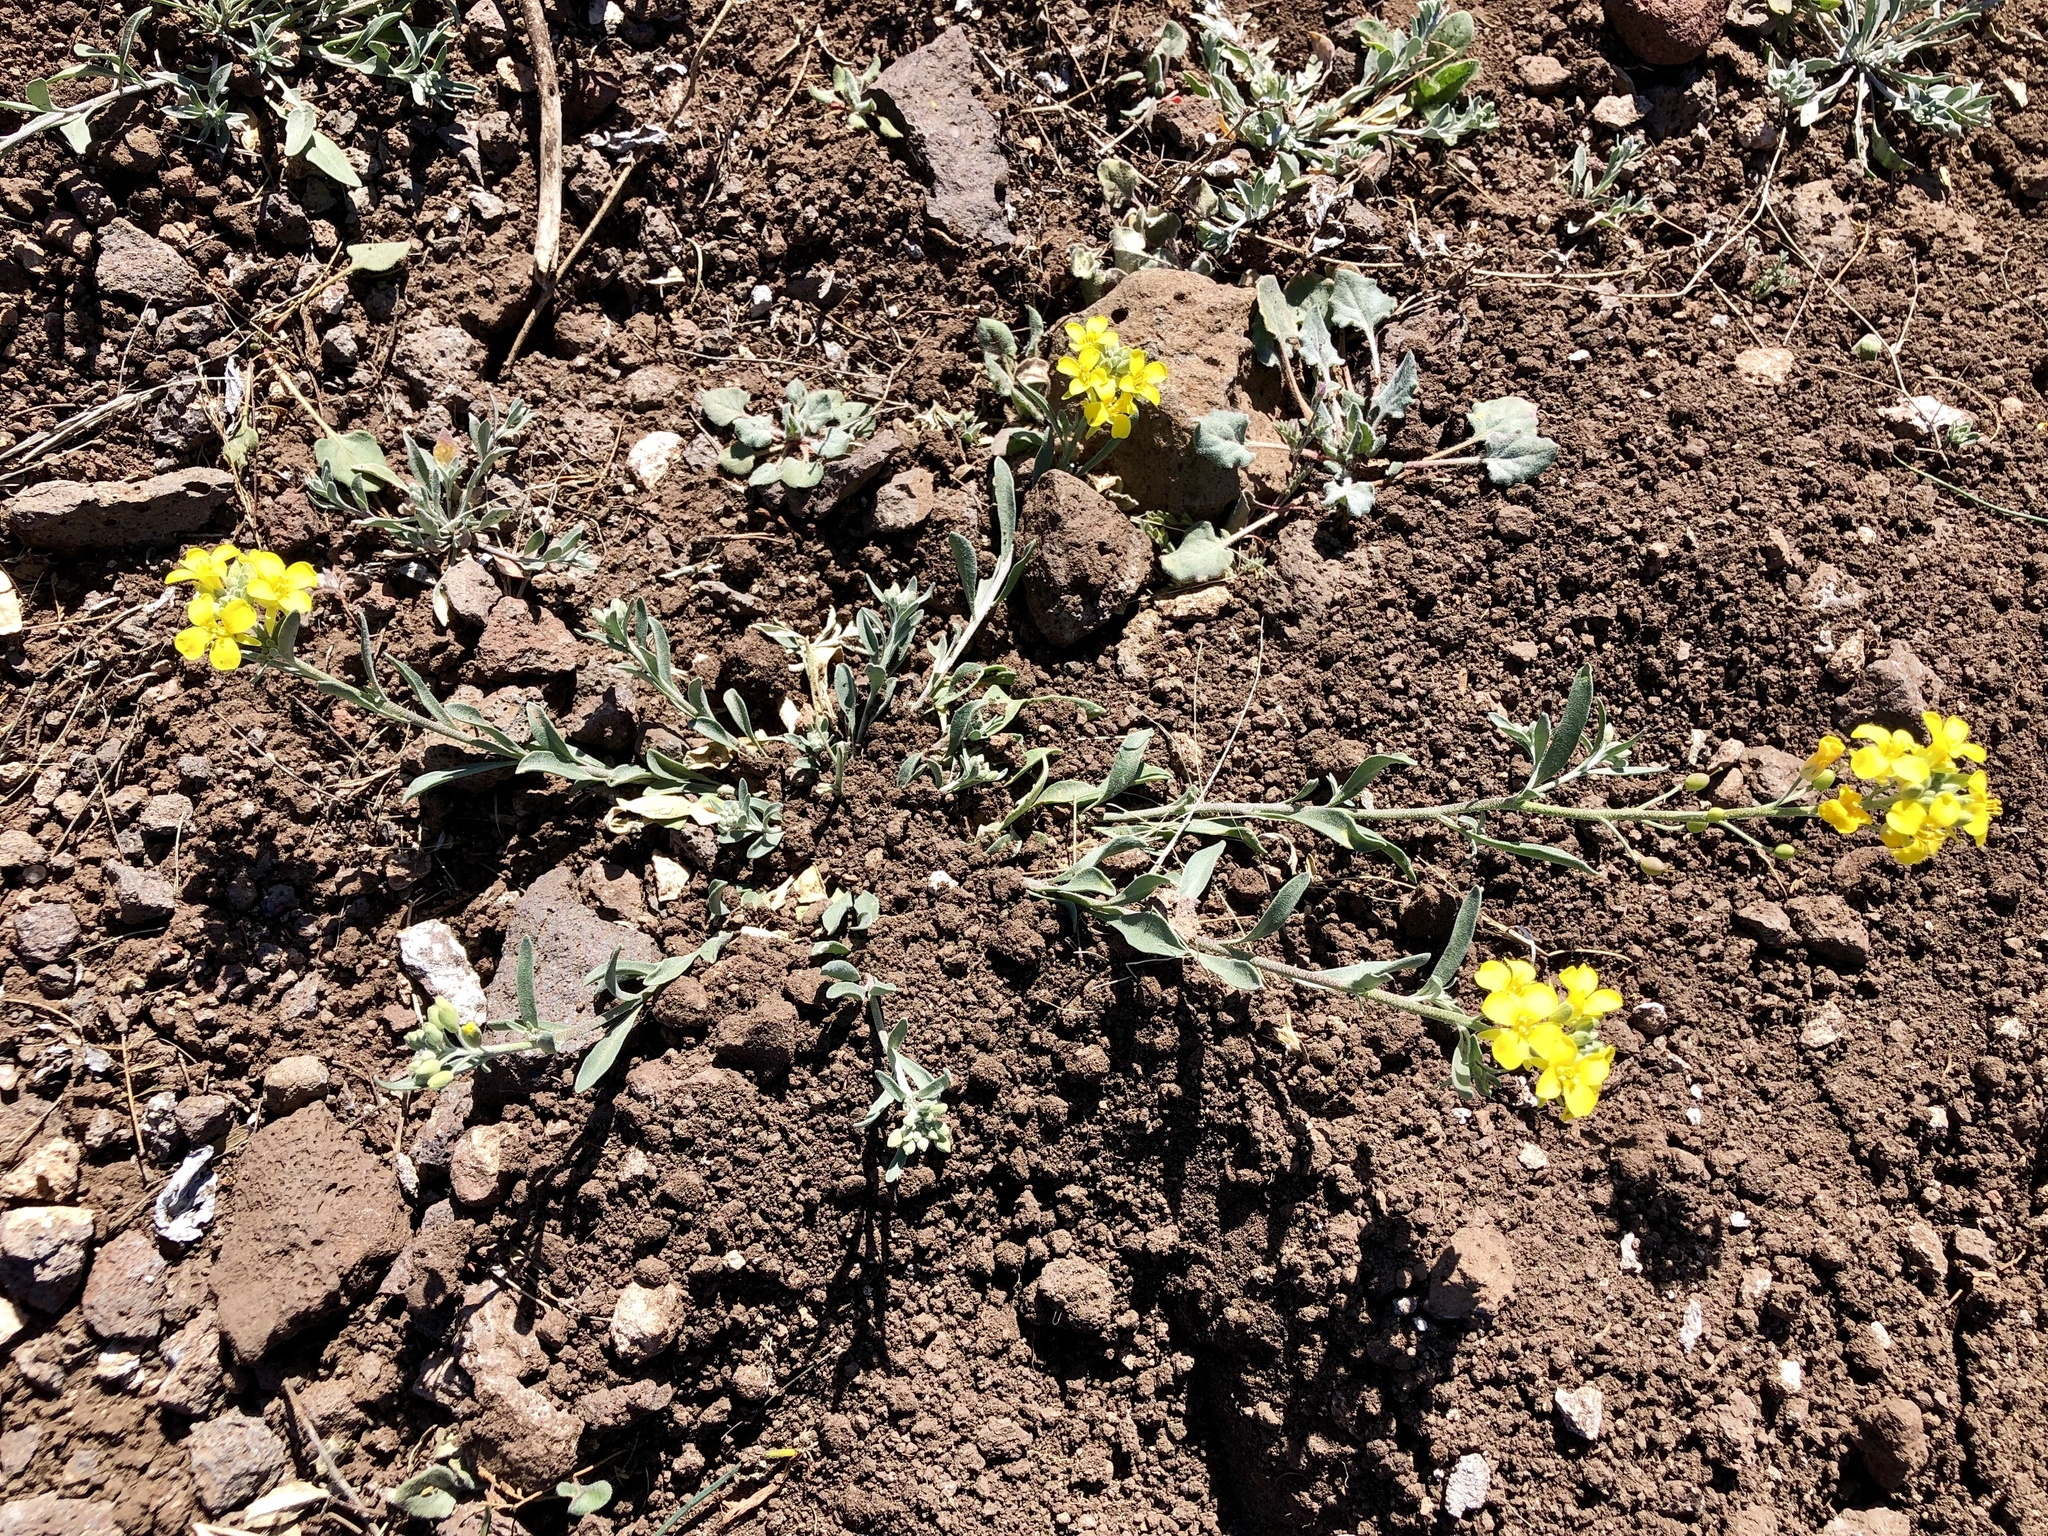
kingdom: Plantae
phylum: Tracheophyta
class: Magnoliopsida
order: Brassicales
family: Brassicaceae
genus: Physaria
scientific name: Physaria gordonii
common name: Gordon's bladderpod
